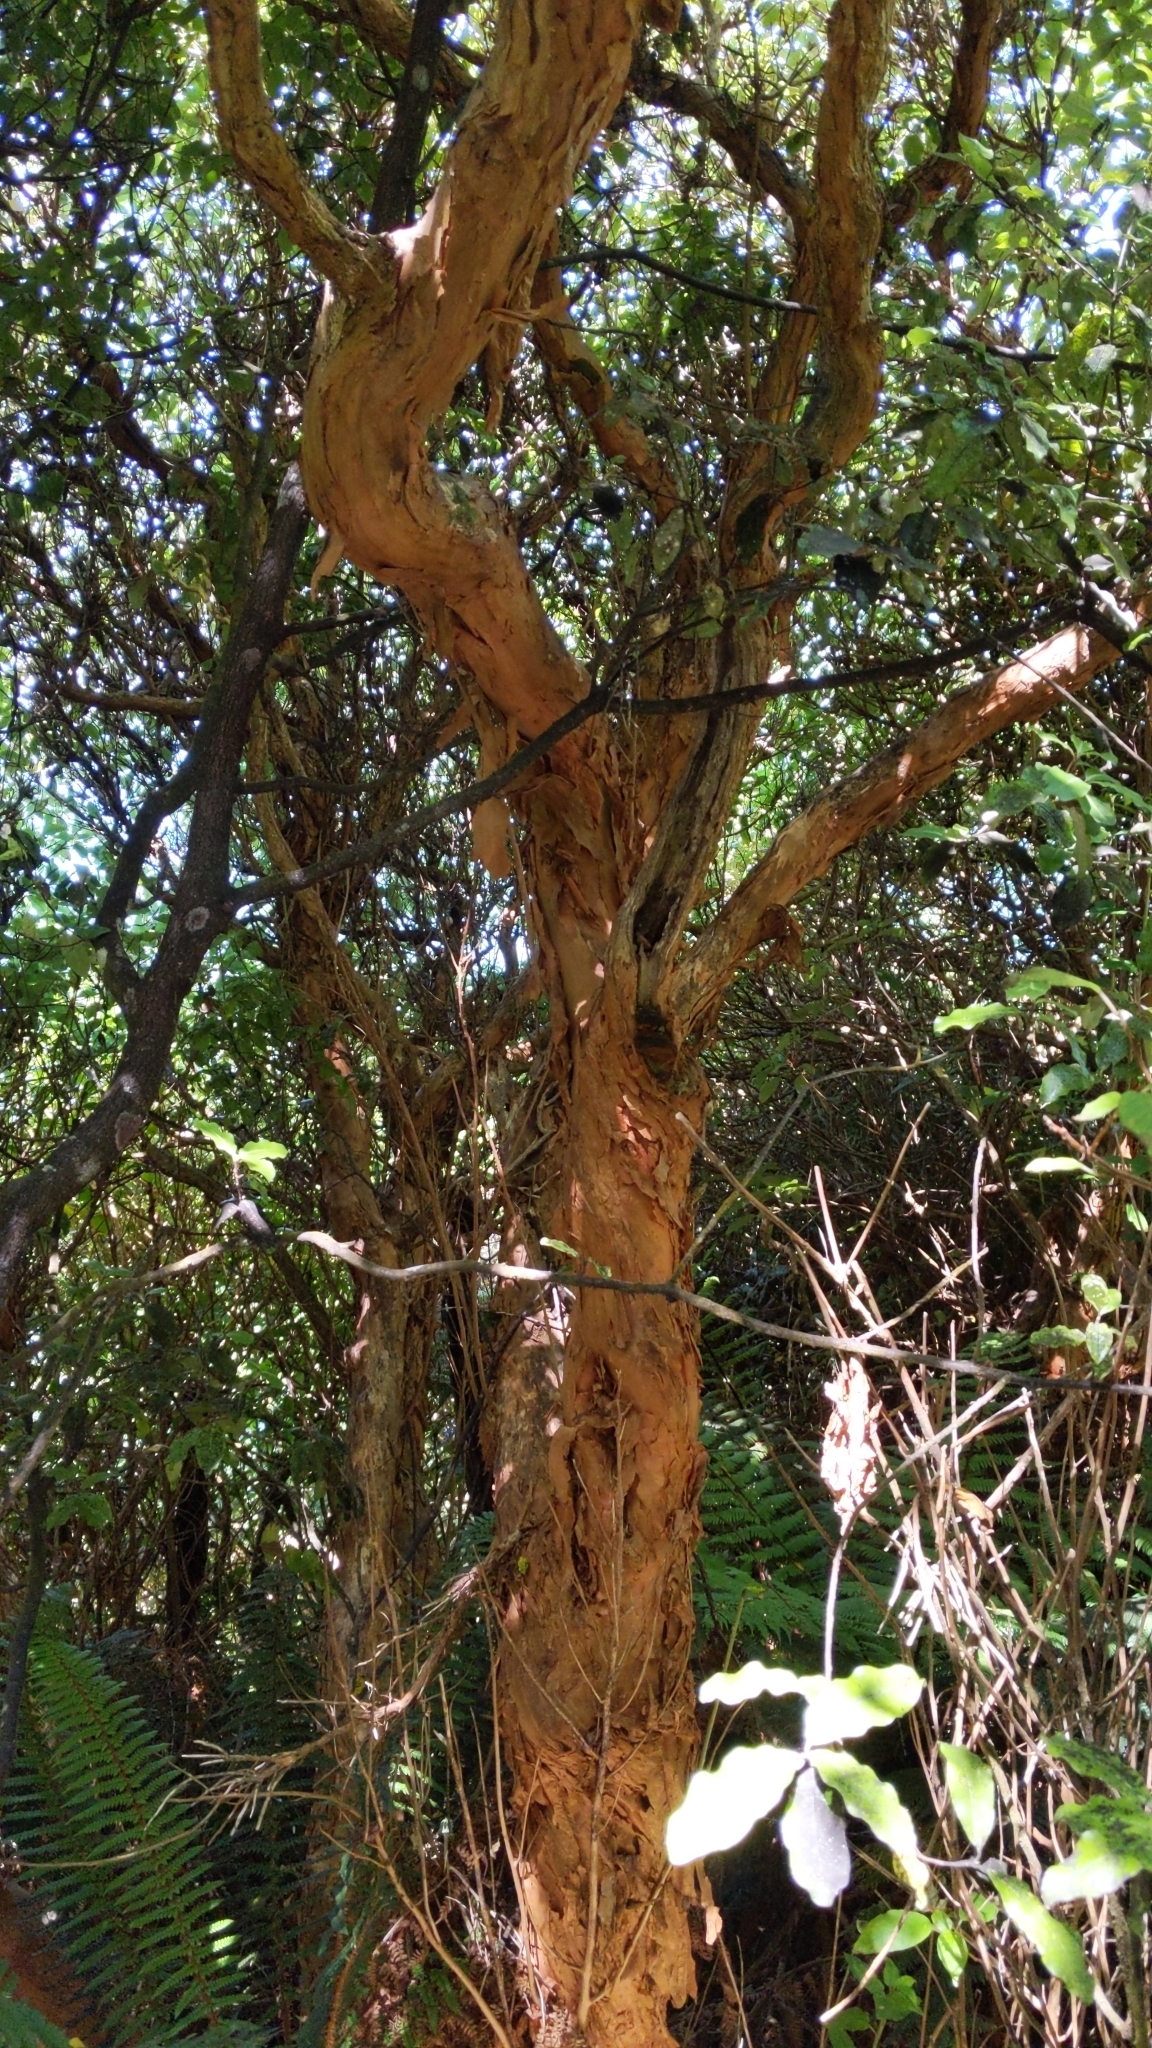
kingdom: Plantae
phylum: Tracheophyta
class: Magnoliopsida
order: Myrtales
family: Onagraceae
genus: Fuchsia
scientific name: Fuchsia excorticata
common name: Tree fuchsia
